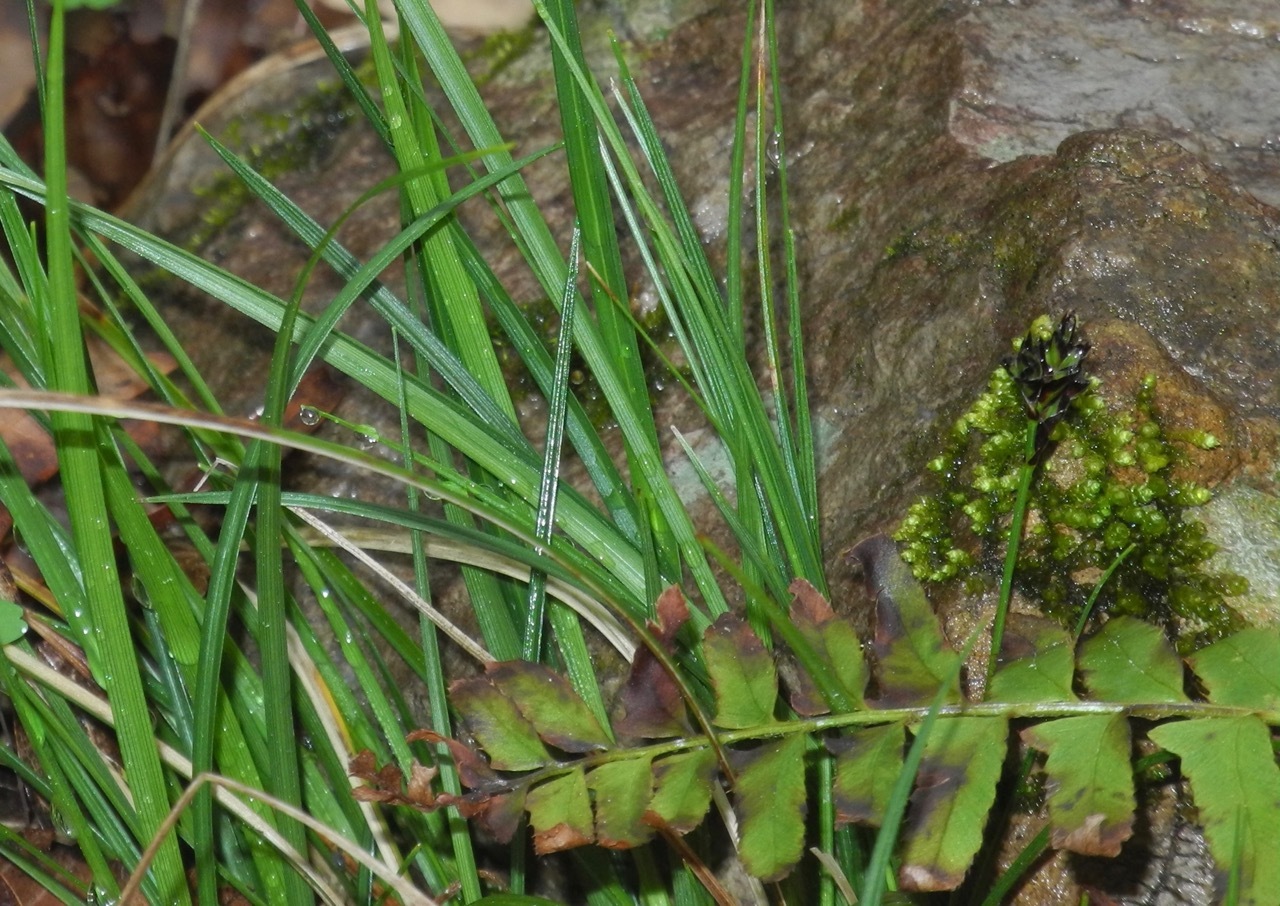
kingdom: Plantae
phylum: Tracheophyta
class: Liliopsida
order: Poales
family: Cyperaceae
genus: Carex
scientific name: Carex nigromarginata
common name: Black-edged sedge
